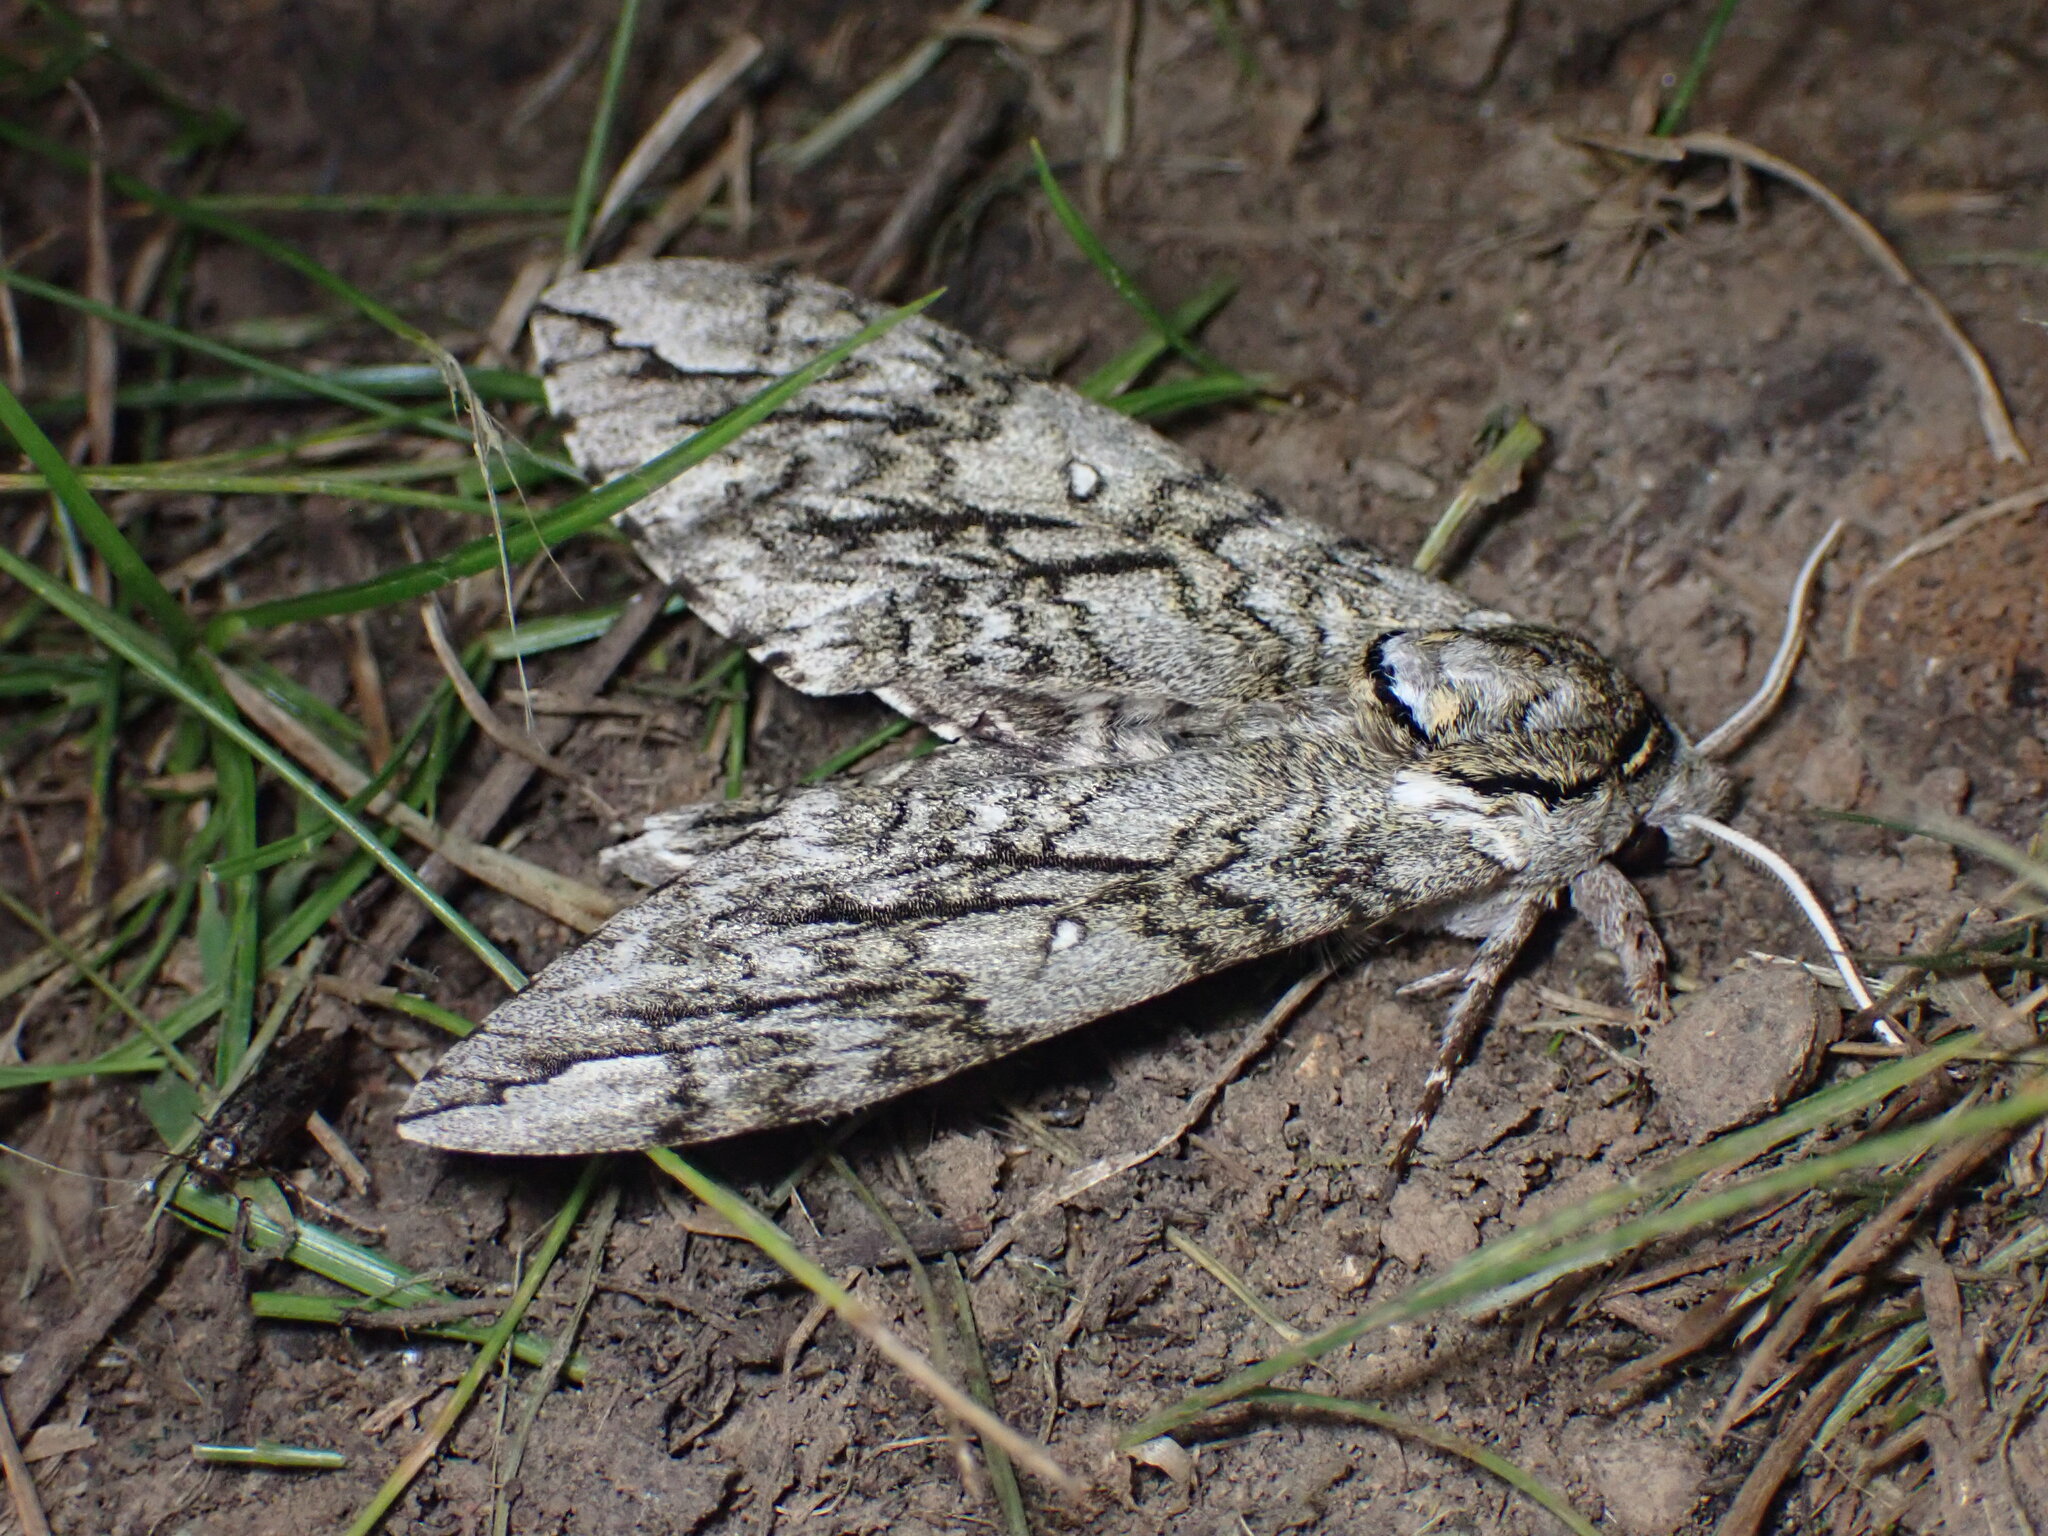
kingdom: Animalia
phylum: Arthropoda
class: Insecta
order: Lepidoptera
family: Sphingidae
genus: Ceratomia
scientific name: Ceratomia undulosa
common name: Waved sphinx
